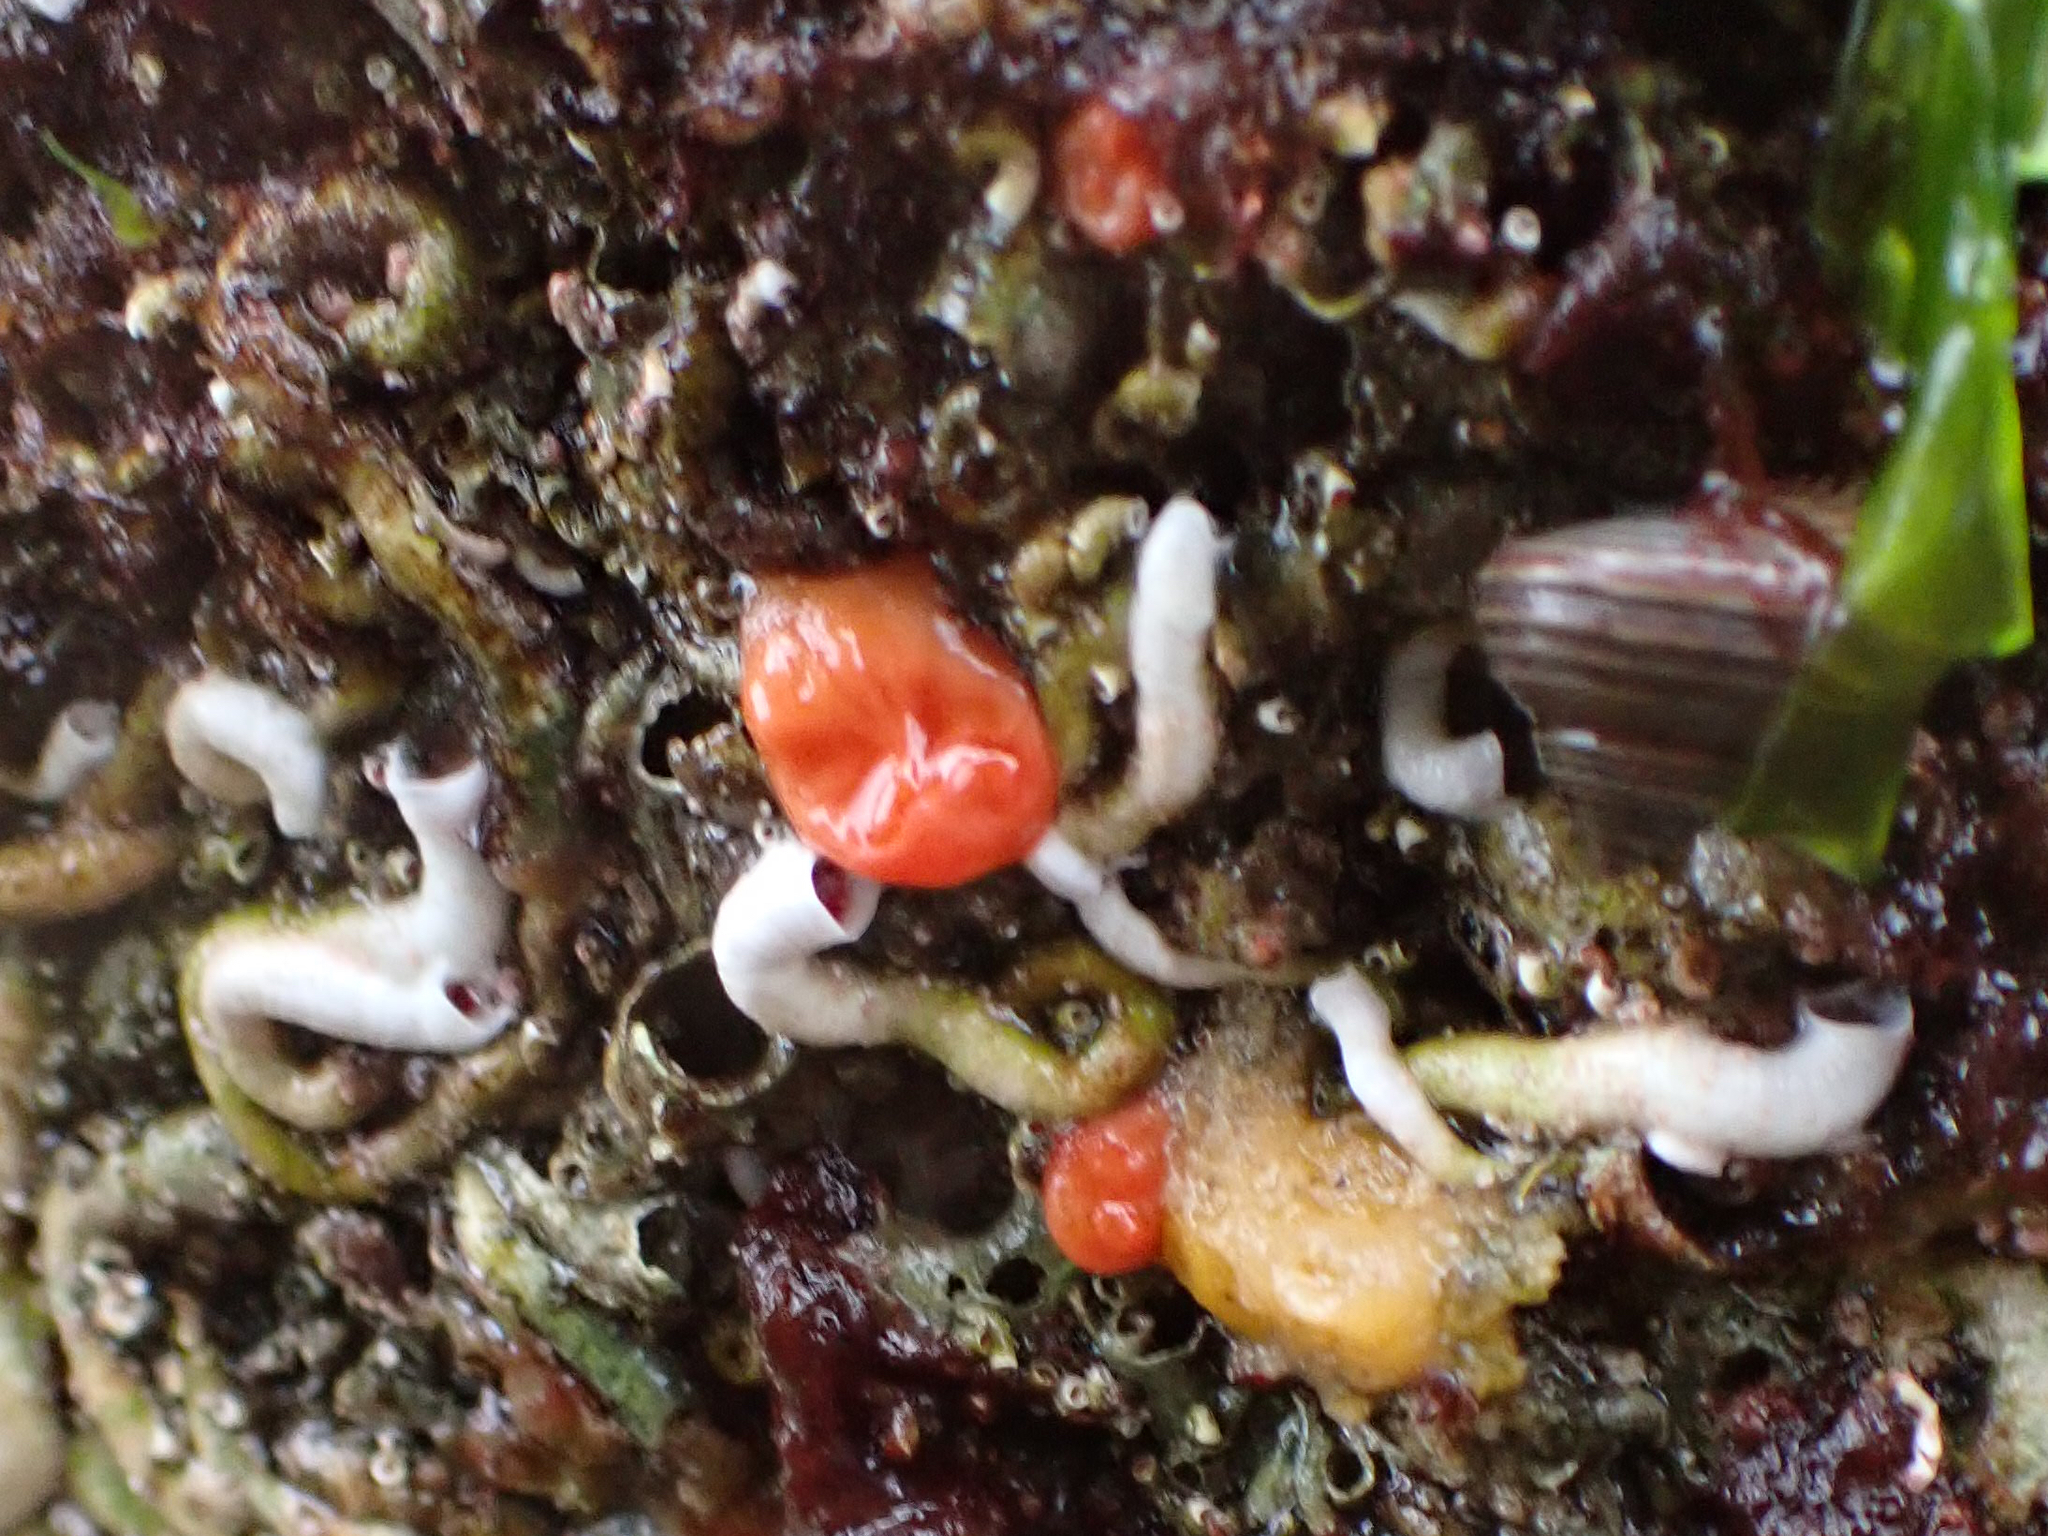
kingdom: Animalia
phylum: Chordata
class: Ascidiacea
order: Stolidobranchia
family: Styelidae
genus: Cnemidocarpa
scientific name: Cnemidocarpa finmarkiensis
